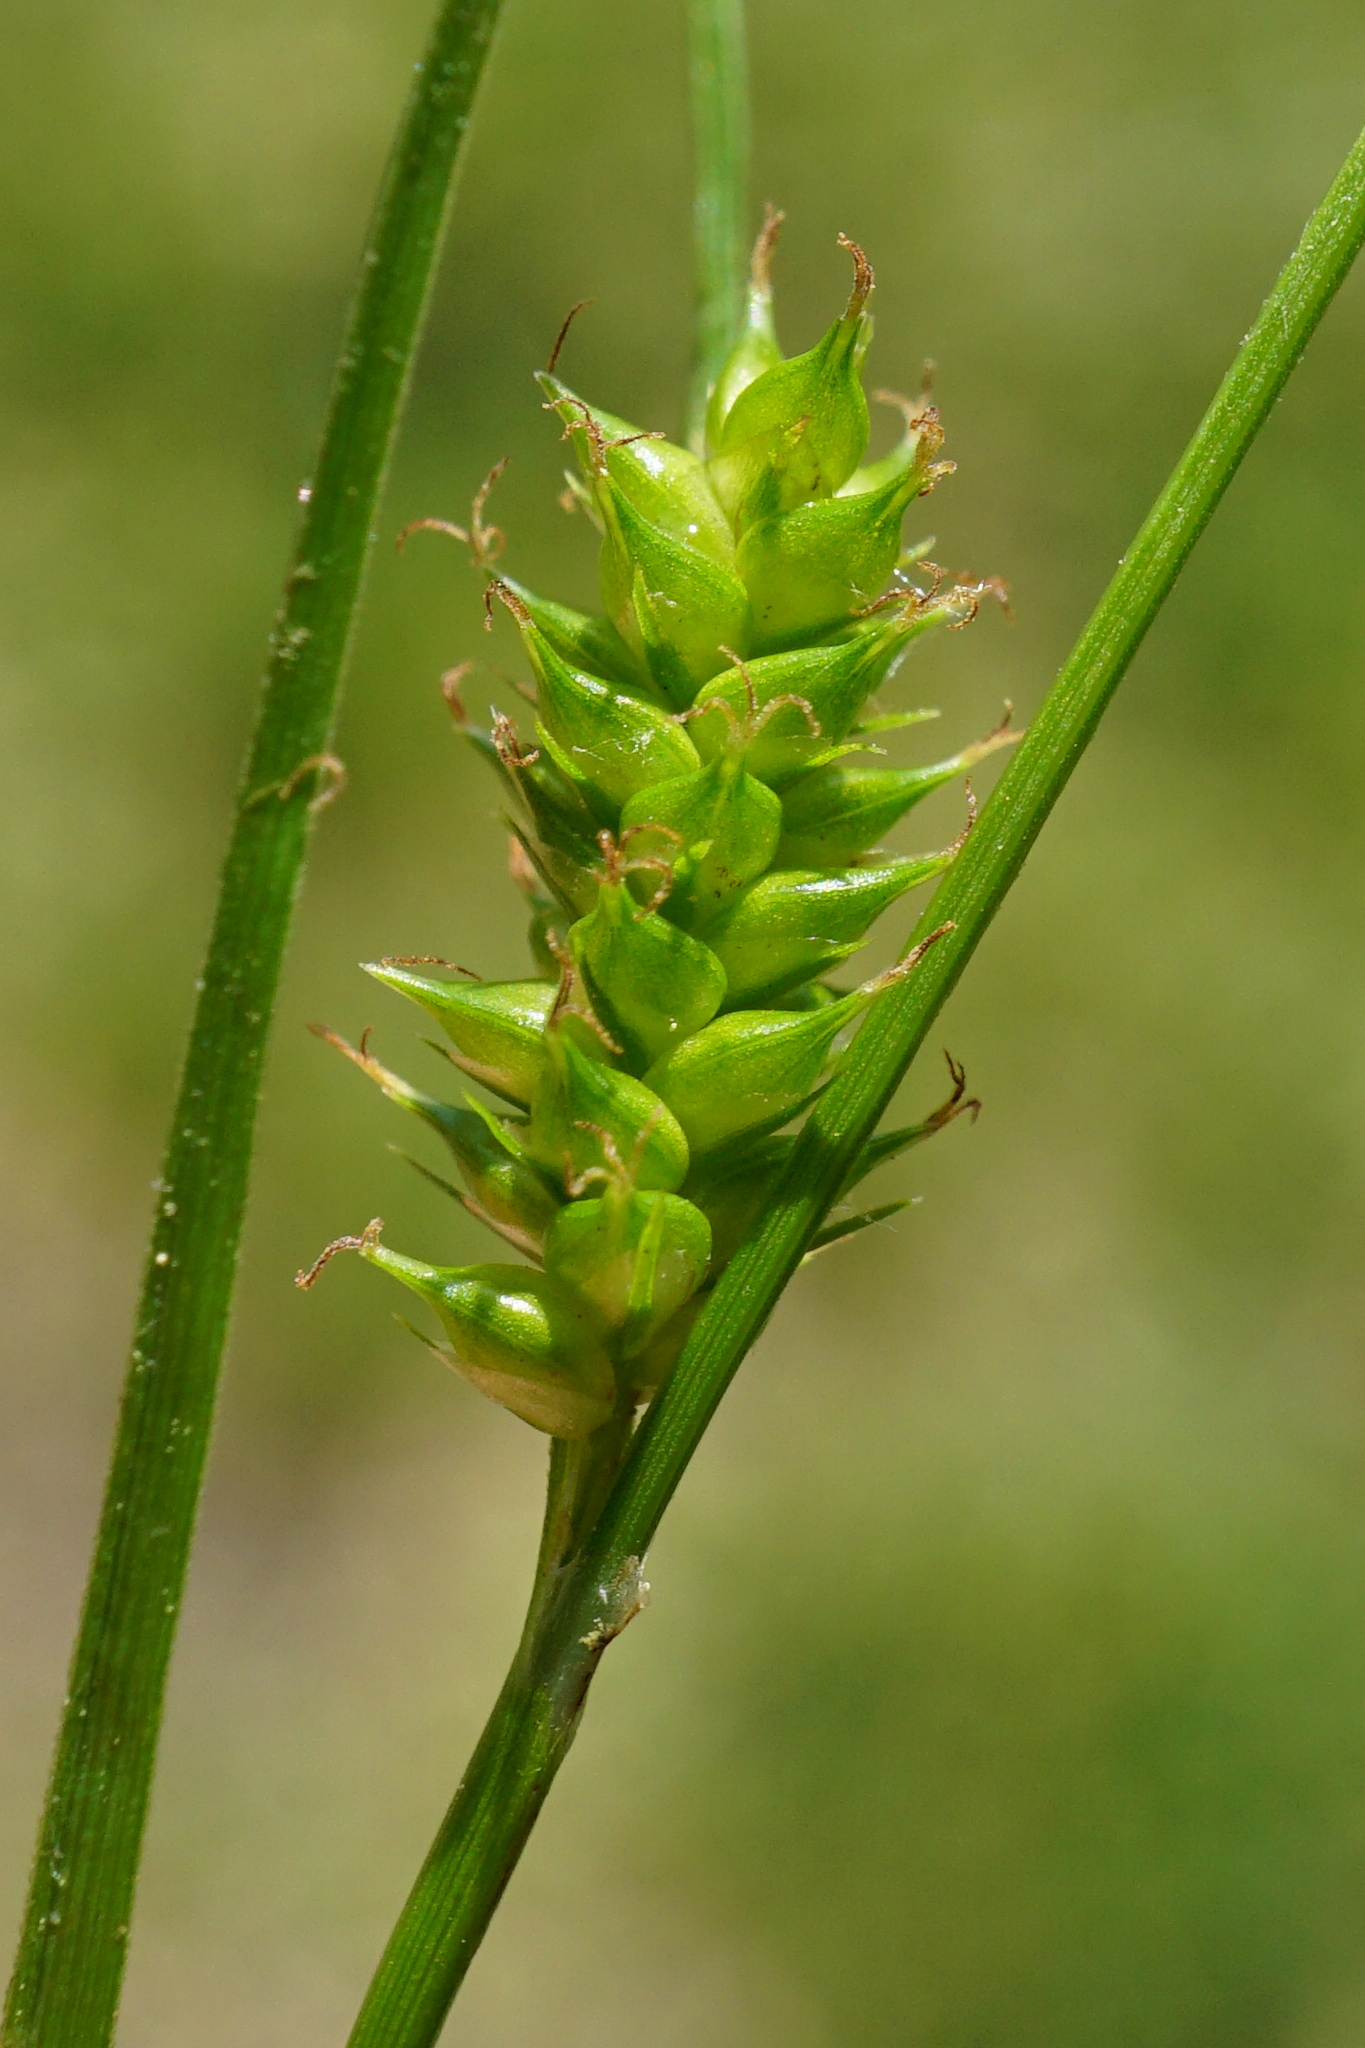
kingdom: Plantae
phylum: Tracheophyta
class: Liliopsida
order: Poales
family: Cyperaceae
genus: Carex
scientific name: Carex punctata
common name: Dotted sedge
